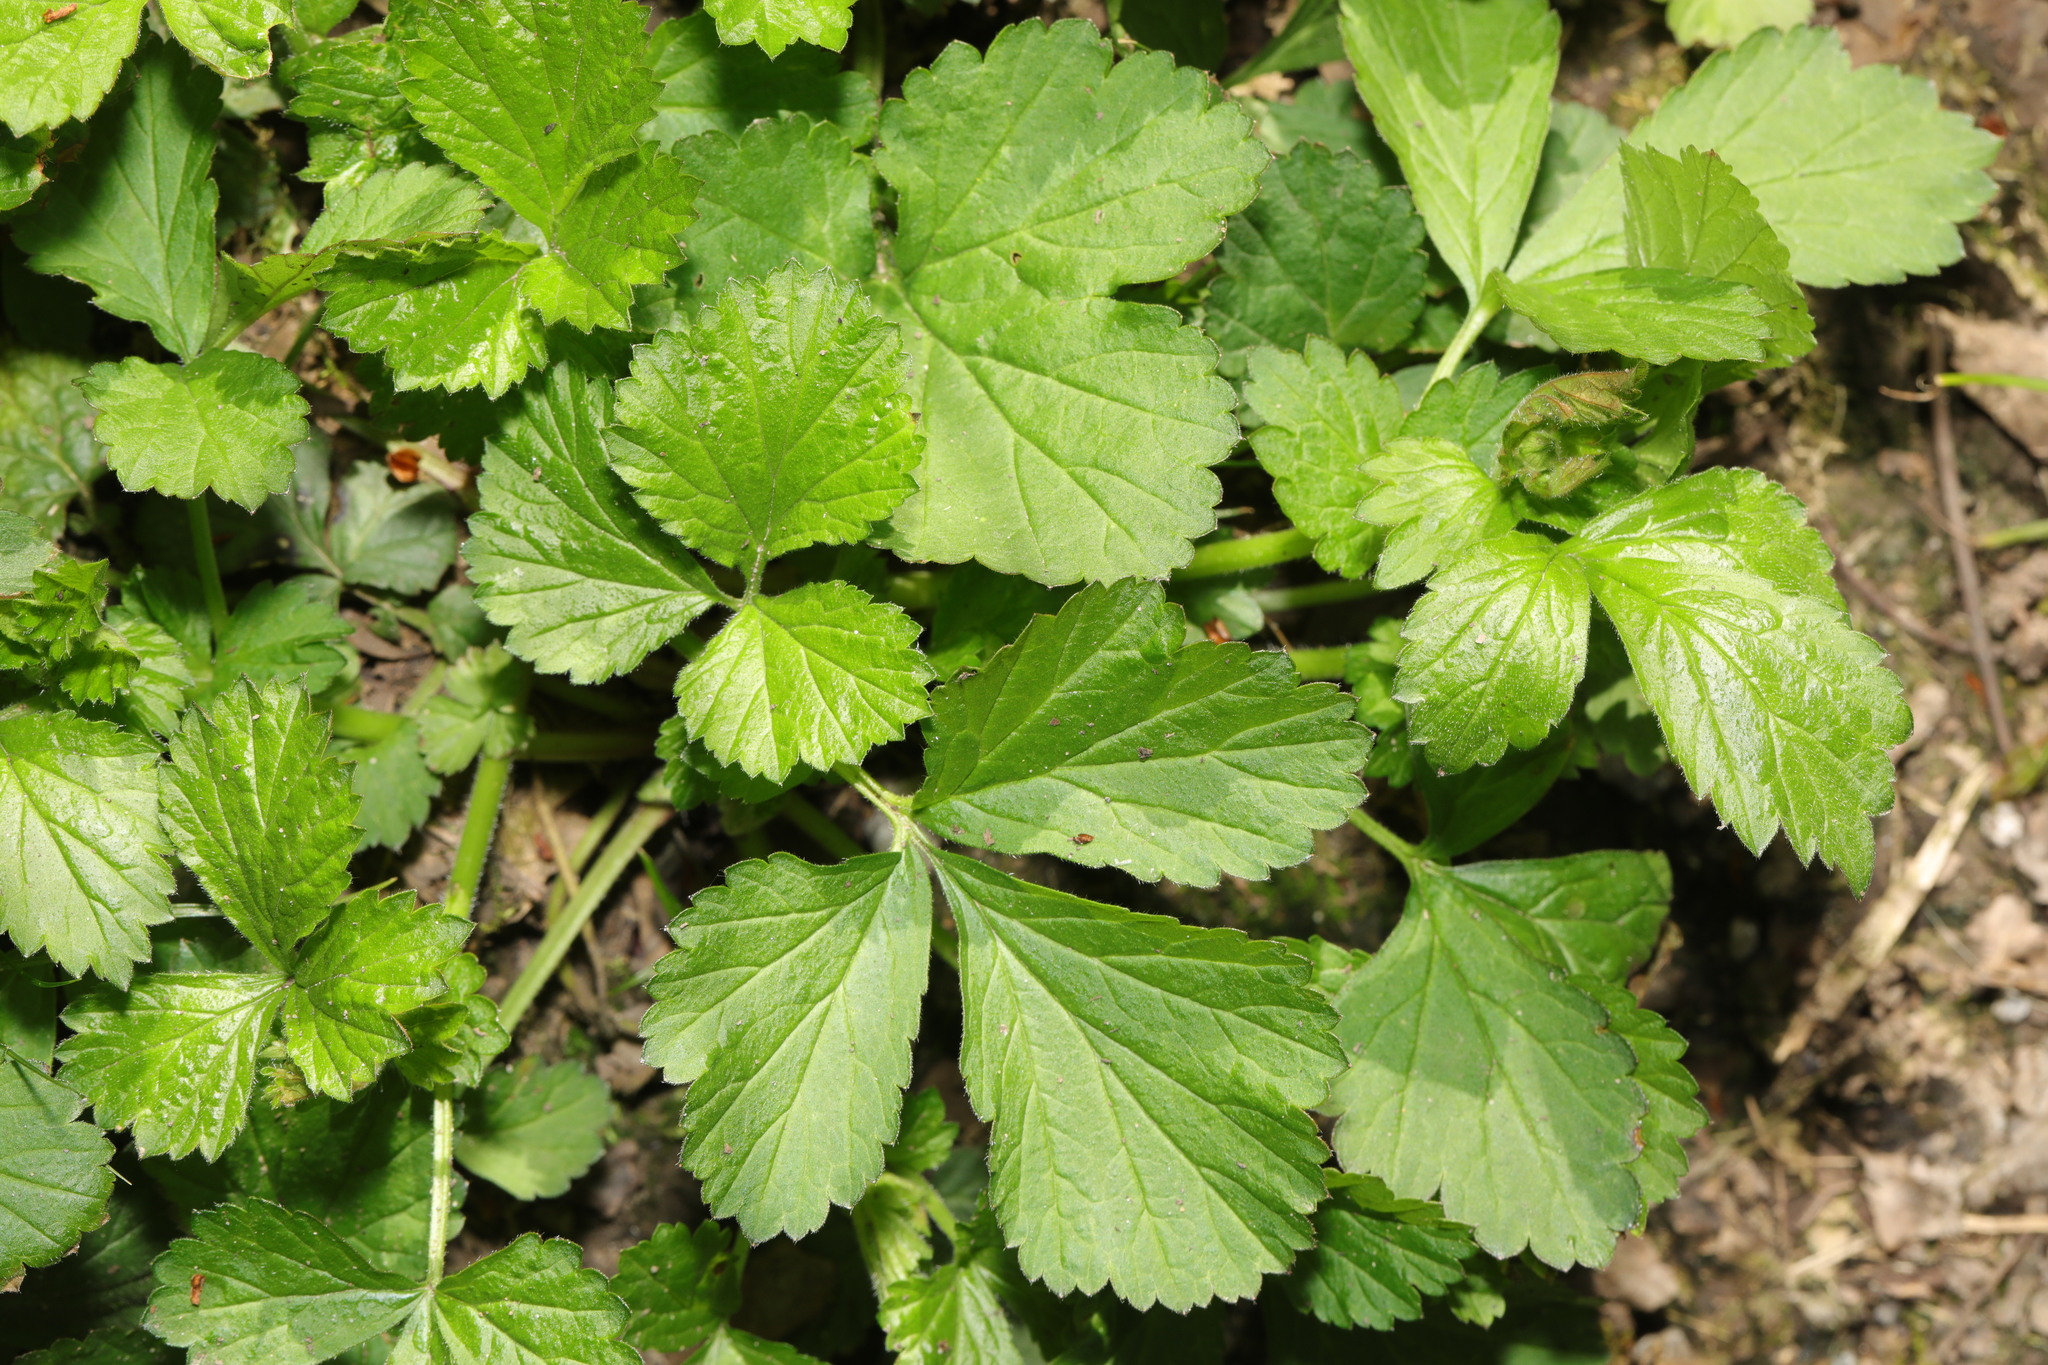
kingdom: Plantae
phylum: Tracheophyta
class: Magnoliopsida
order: Rosales
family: Rosaceae
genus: Geum
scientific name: Geum urbanum
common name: Wood avens
